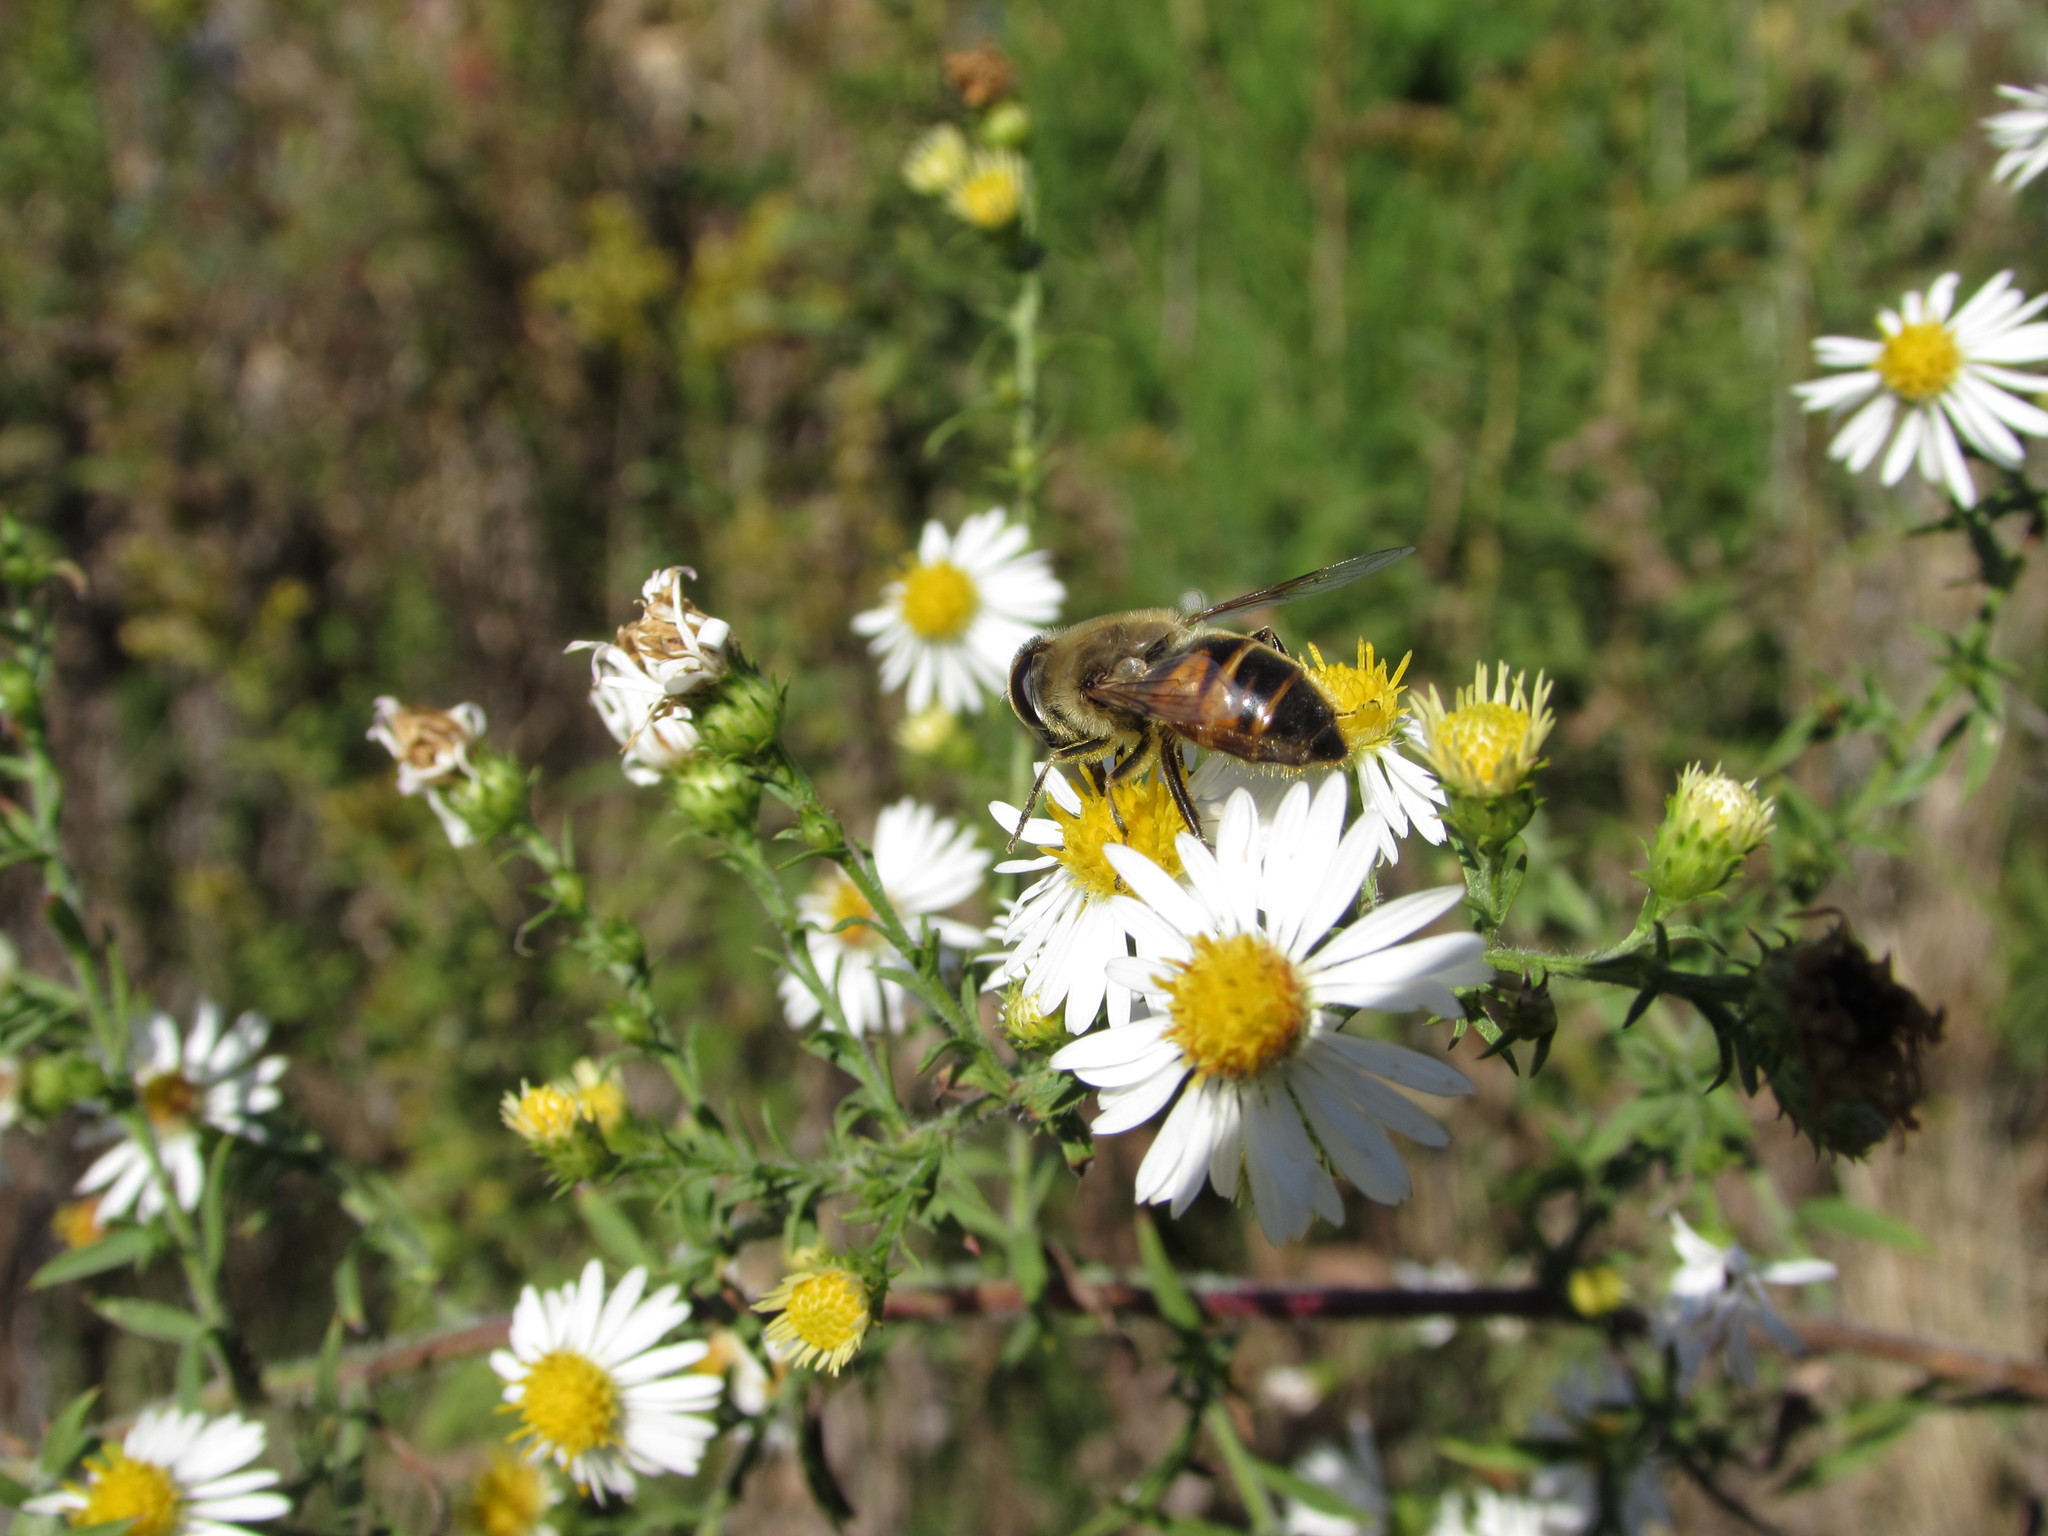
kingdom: Animalia
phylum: Arthropoda
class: Insecta
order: Diptera
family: Syrphidae
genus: Eristalis
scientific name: Eristalis tenax
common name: Drone fly
